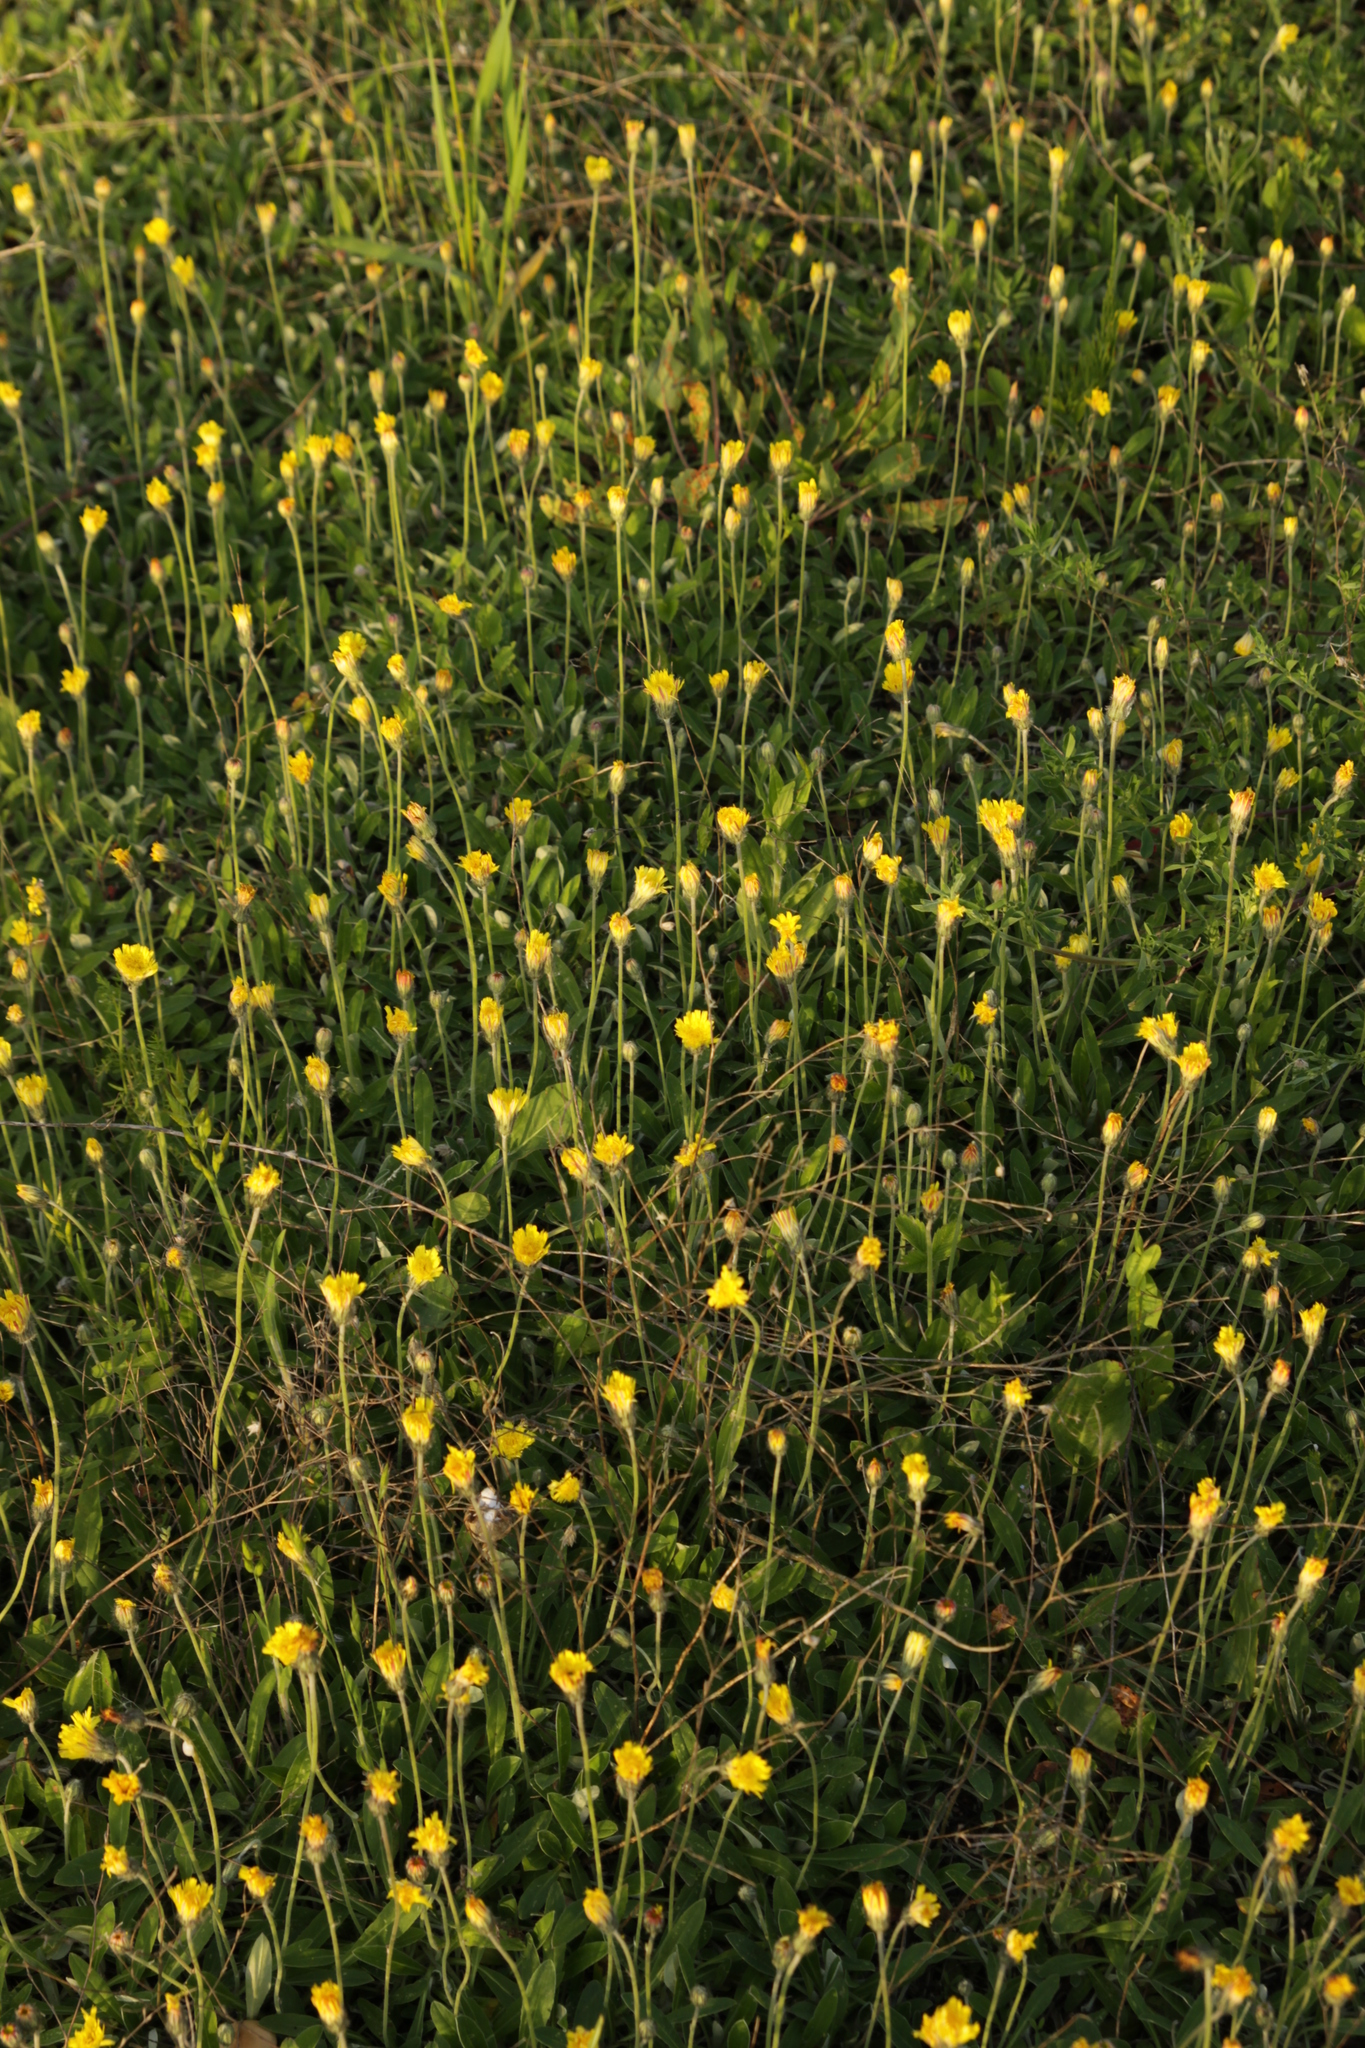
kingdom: Plantae
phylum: Tracheophyta
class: Magnoliopsida
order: Asterales
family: Asteraceae
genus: Pilosella
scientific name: Pilosella officinarum
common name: Mouse-ear hawkweed
